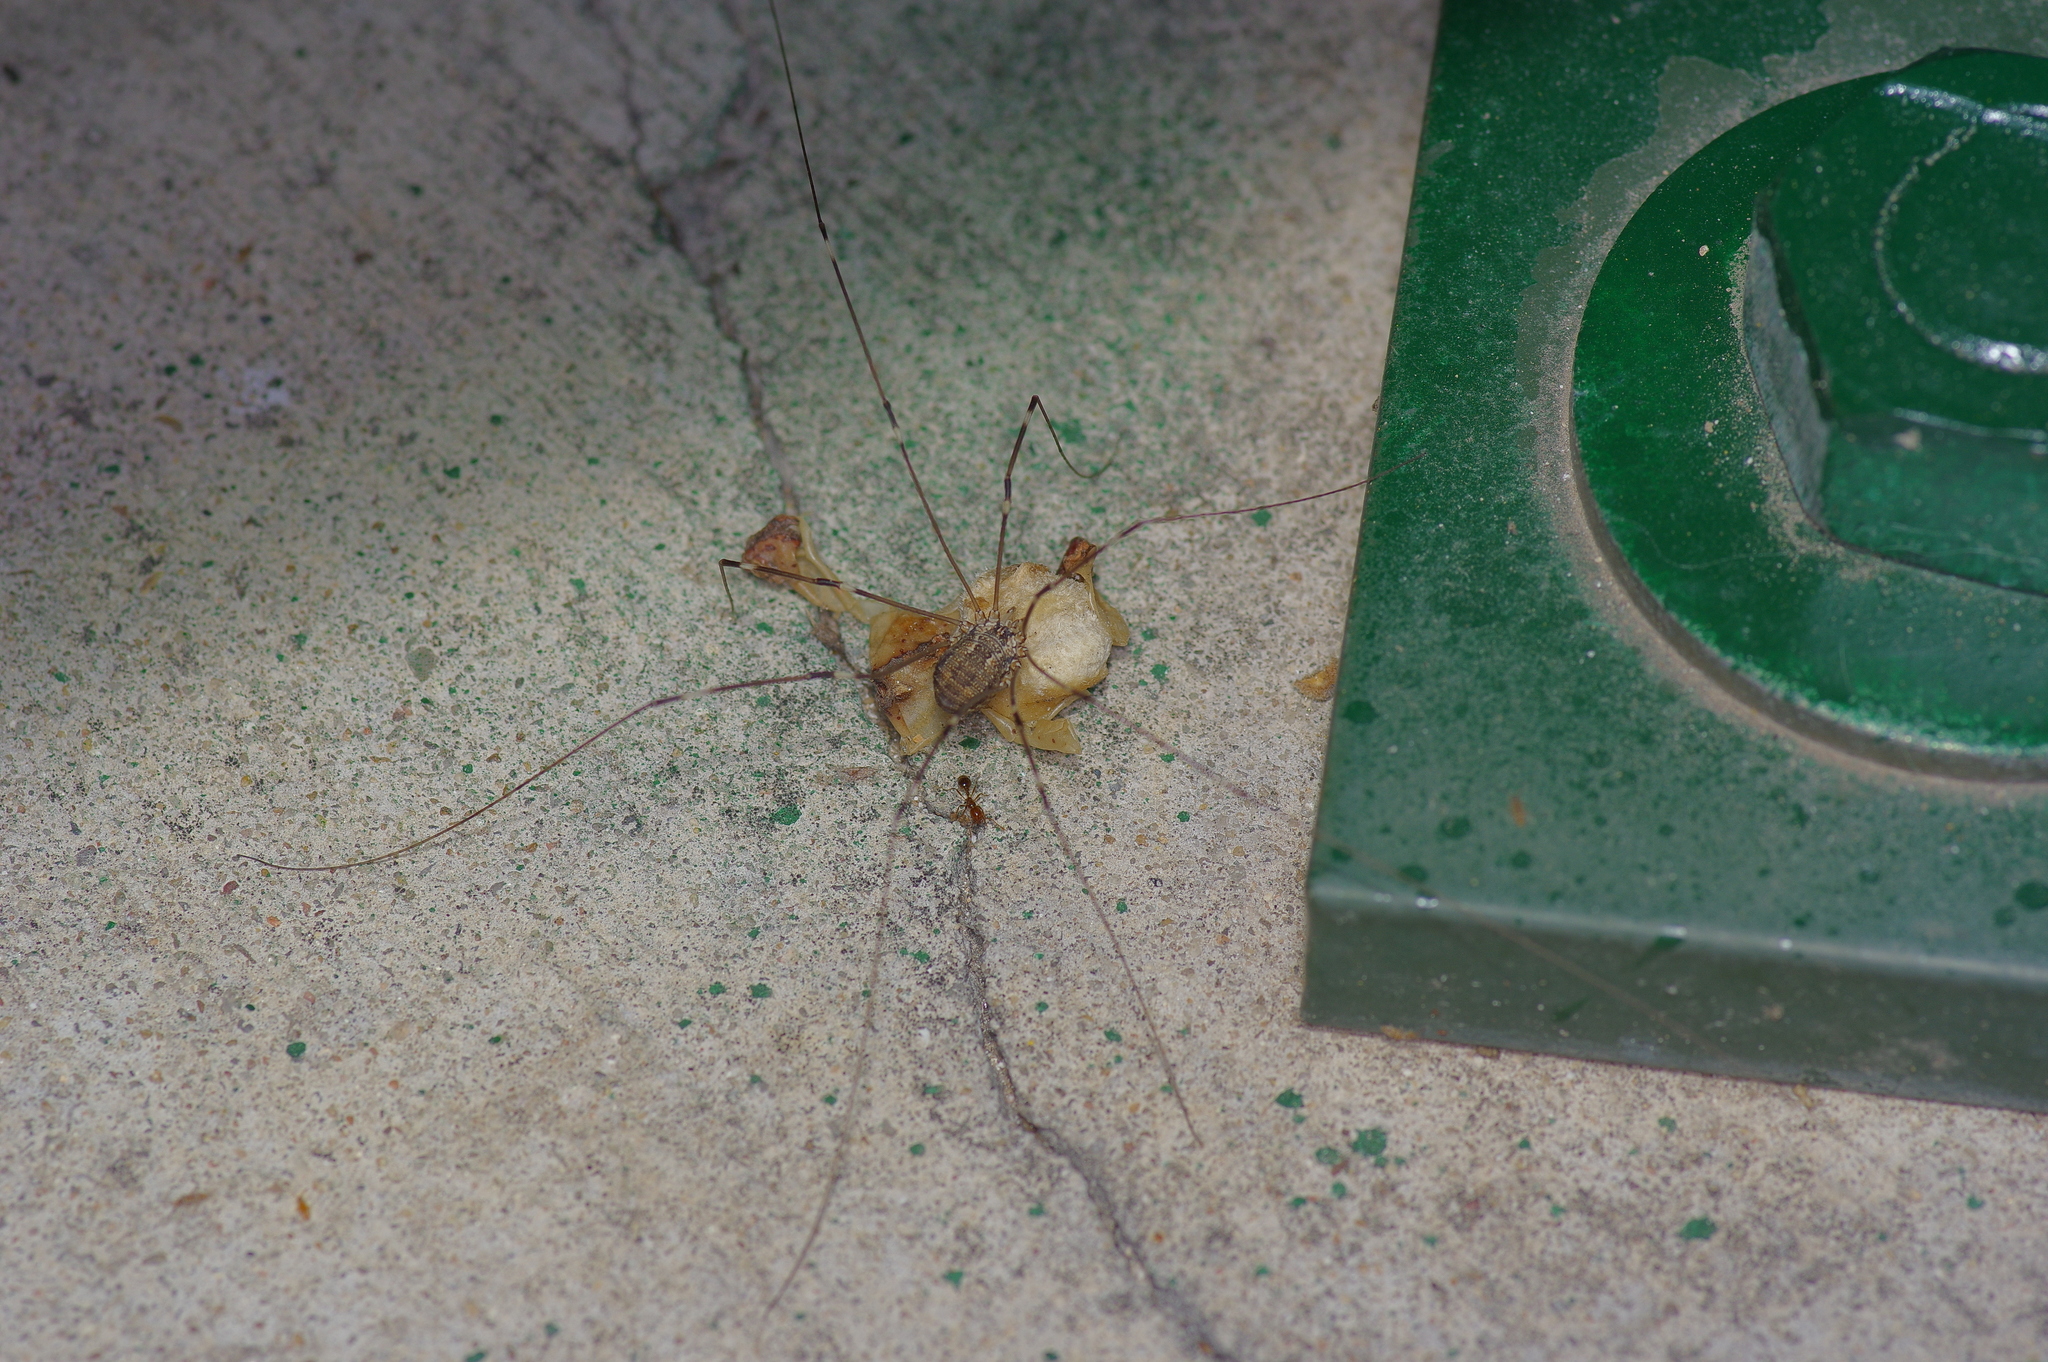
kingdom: Animalia
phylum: Arthropoda
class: Arachnida
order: Opiliones
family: Sclerosomatidae
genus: Leiobunum
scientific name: Leiobunum townsendi
